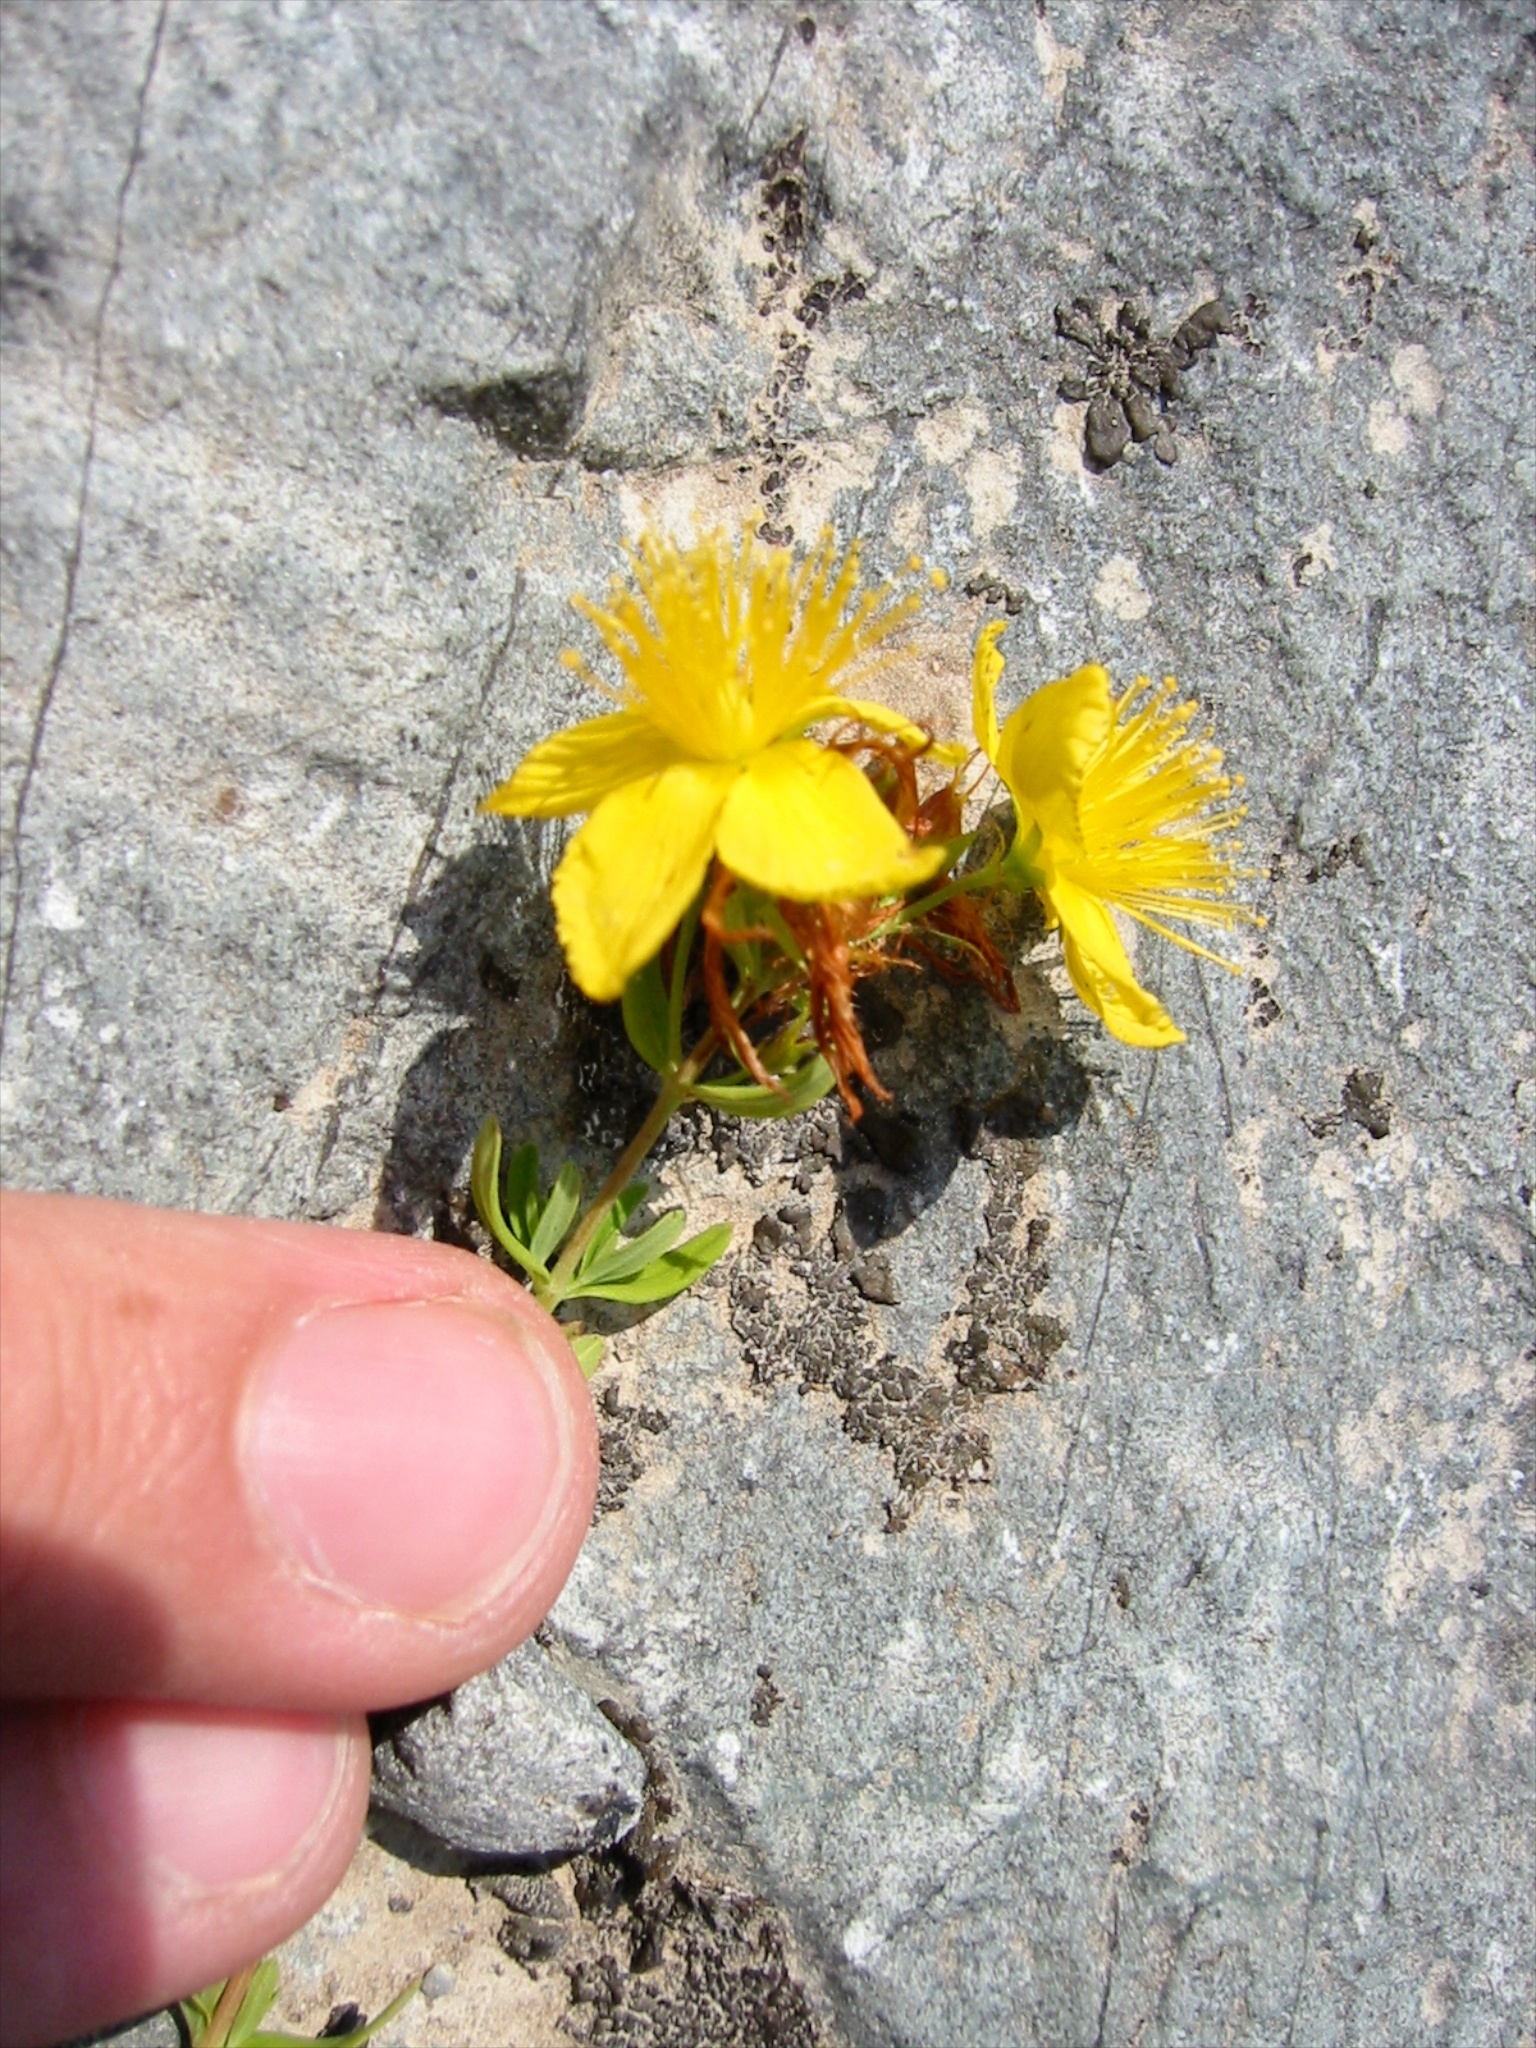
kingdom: Plantae
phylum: Tracheophyta
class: Magnoliopsida
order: Malpighiales
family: Hypericaceae
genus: Hypericum
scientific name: Hypericum perforatum
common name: Common st. johnswort
